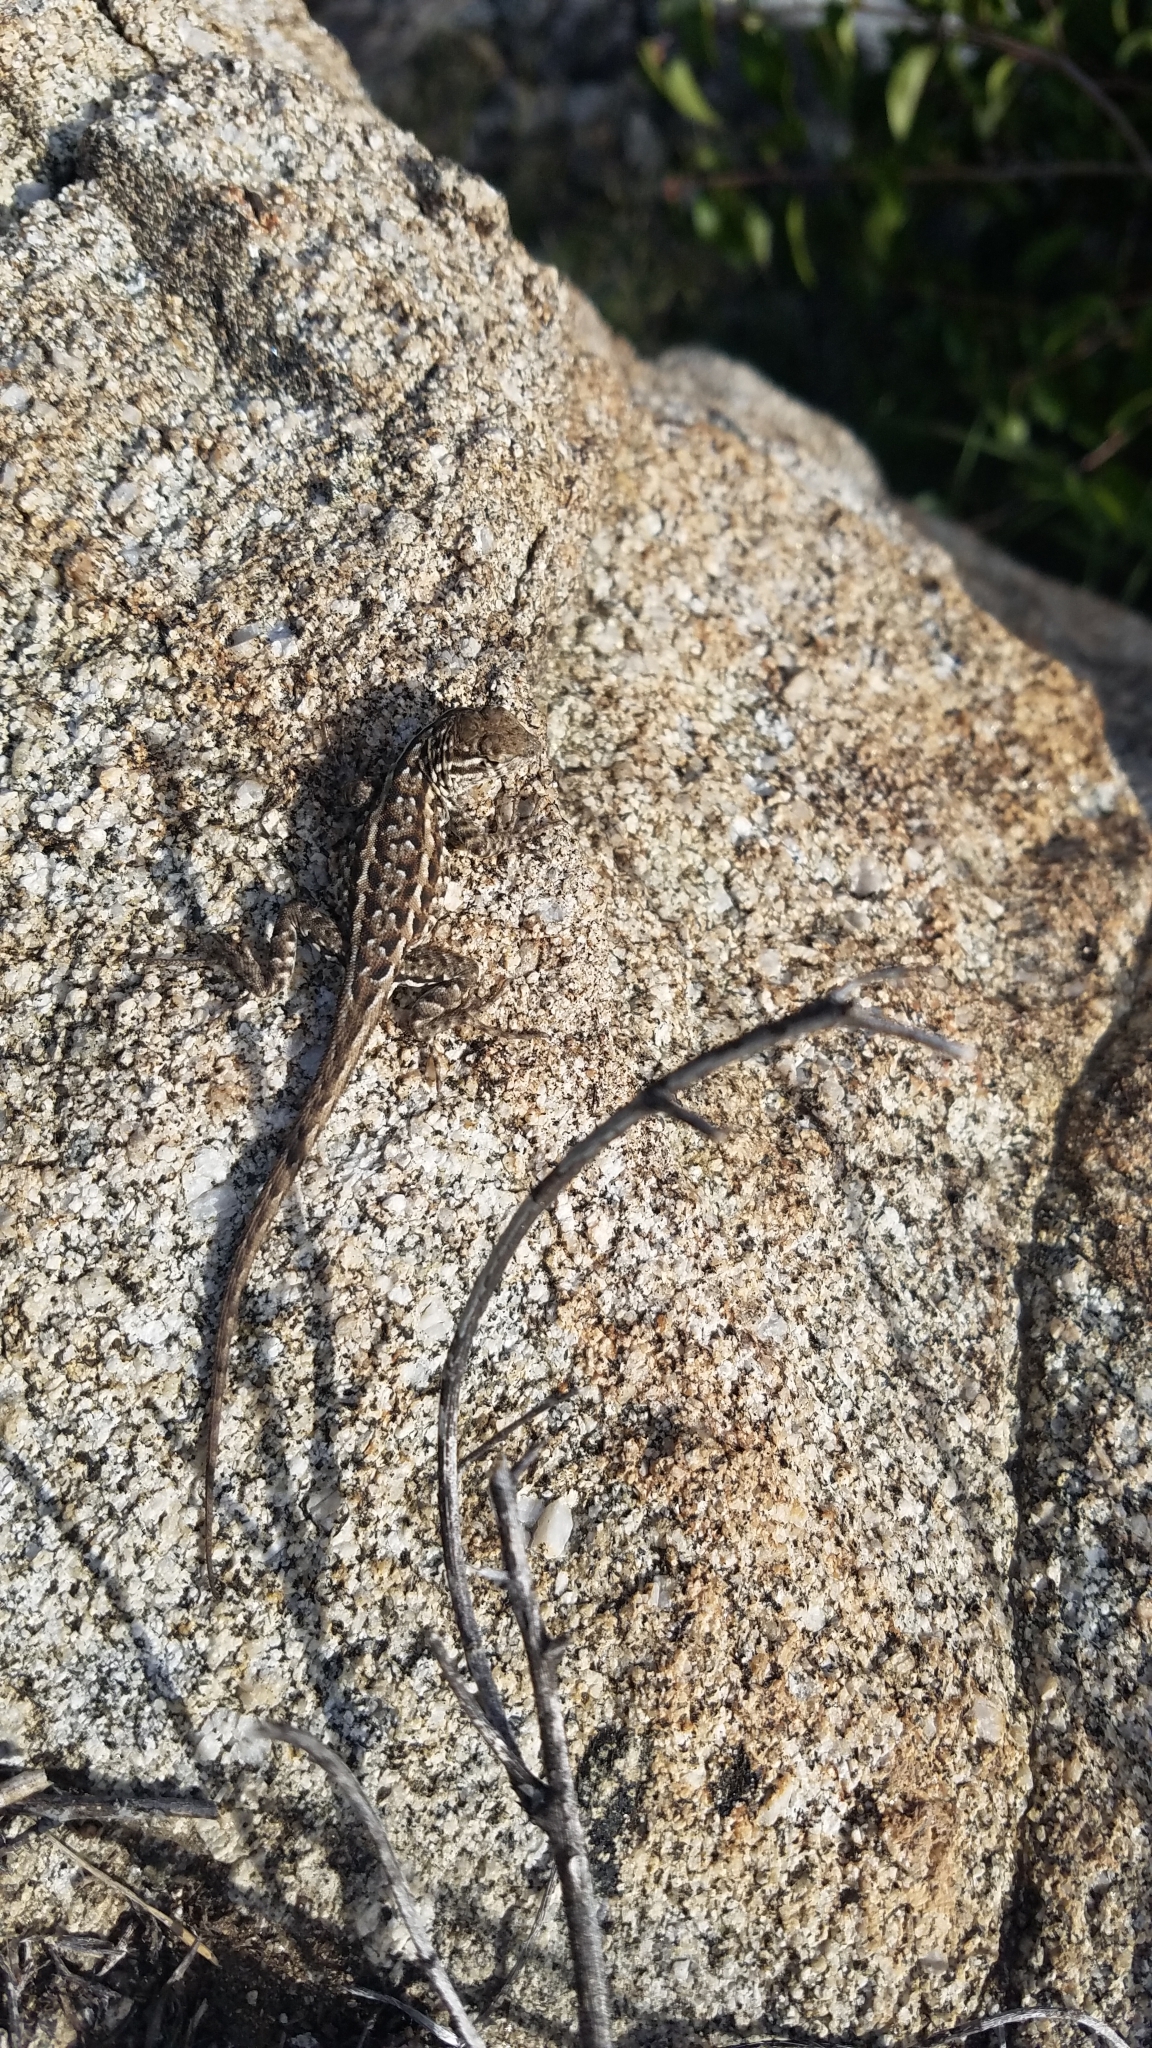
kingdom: Animalia
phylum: Chordata
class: Squamata
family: Phrynosomatidae
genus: Uta
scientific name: Uta stansburiana
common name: Side-blotched lizard
